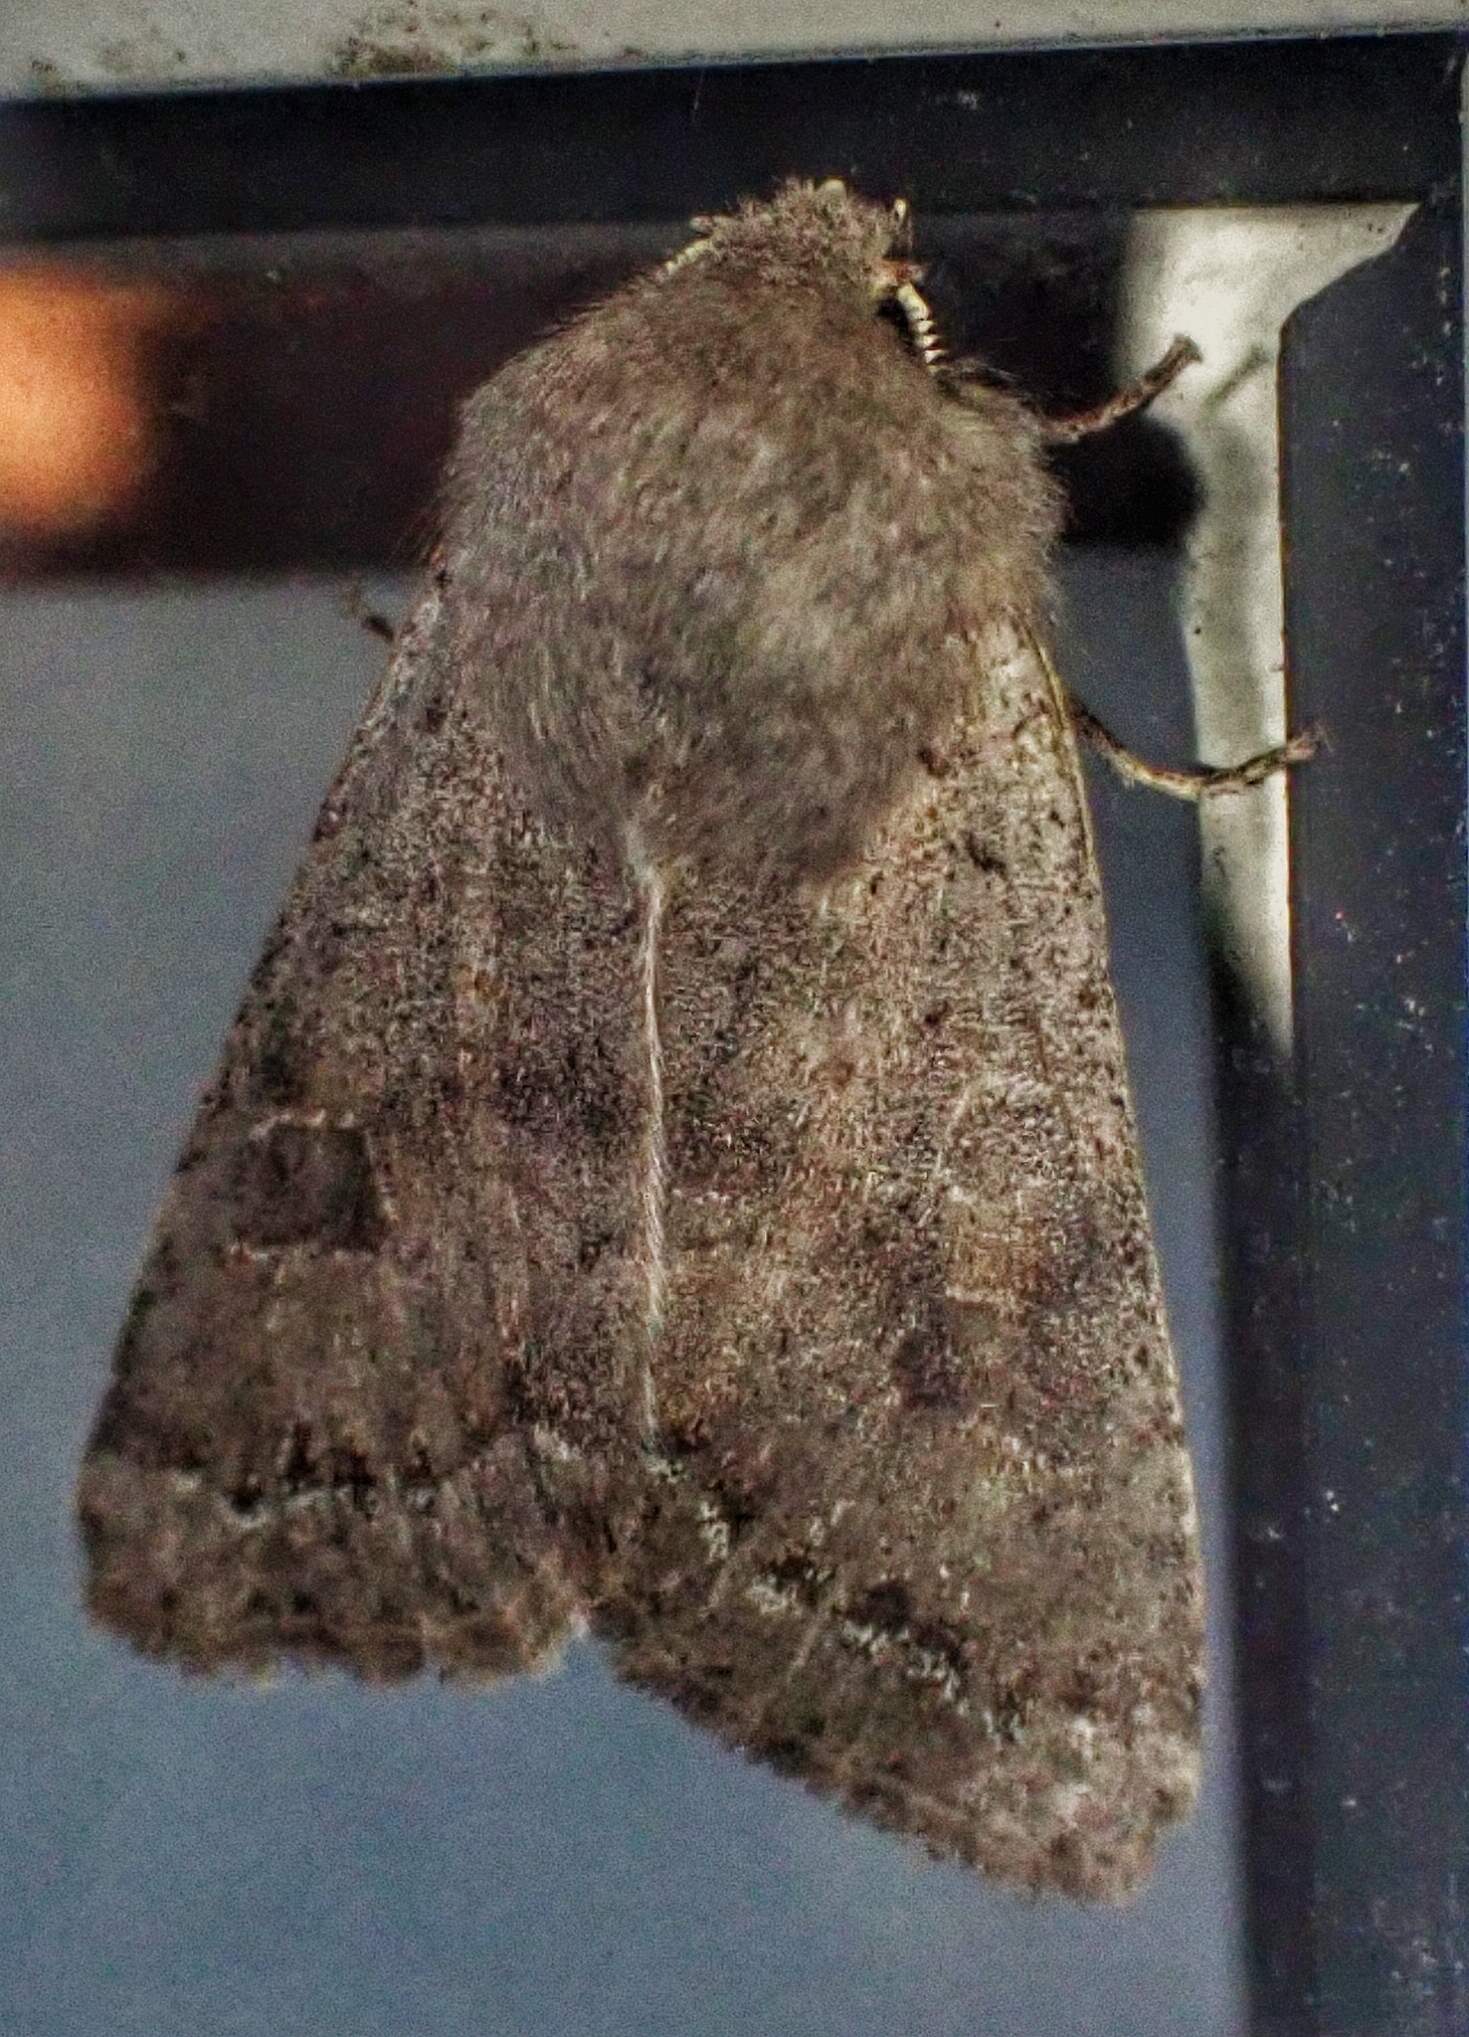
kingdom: Animalia
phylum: Arthropoda
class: Insecta
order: Lepidoptera
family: Noctuidae
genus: Orthosia
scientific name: Orthosia populeti
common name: Lead-coloured drab
